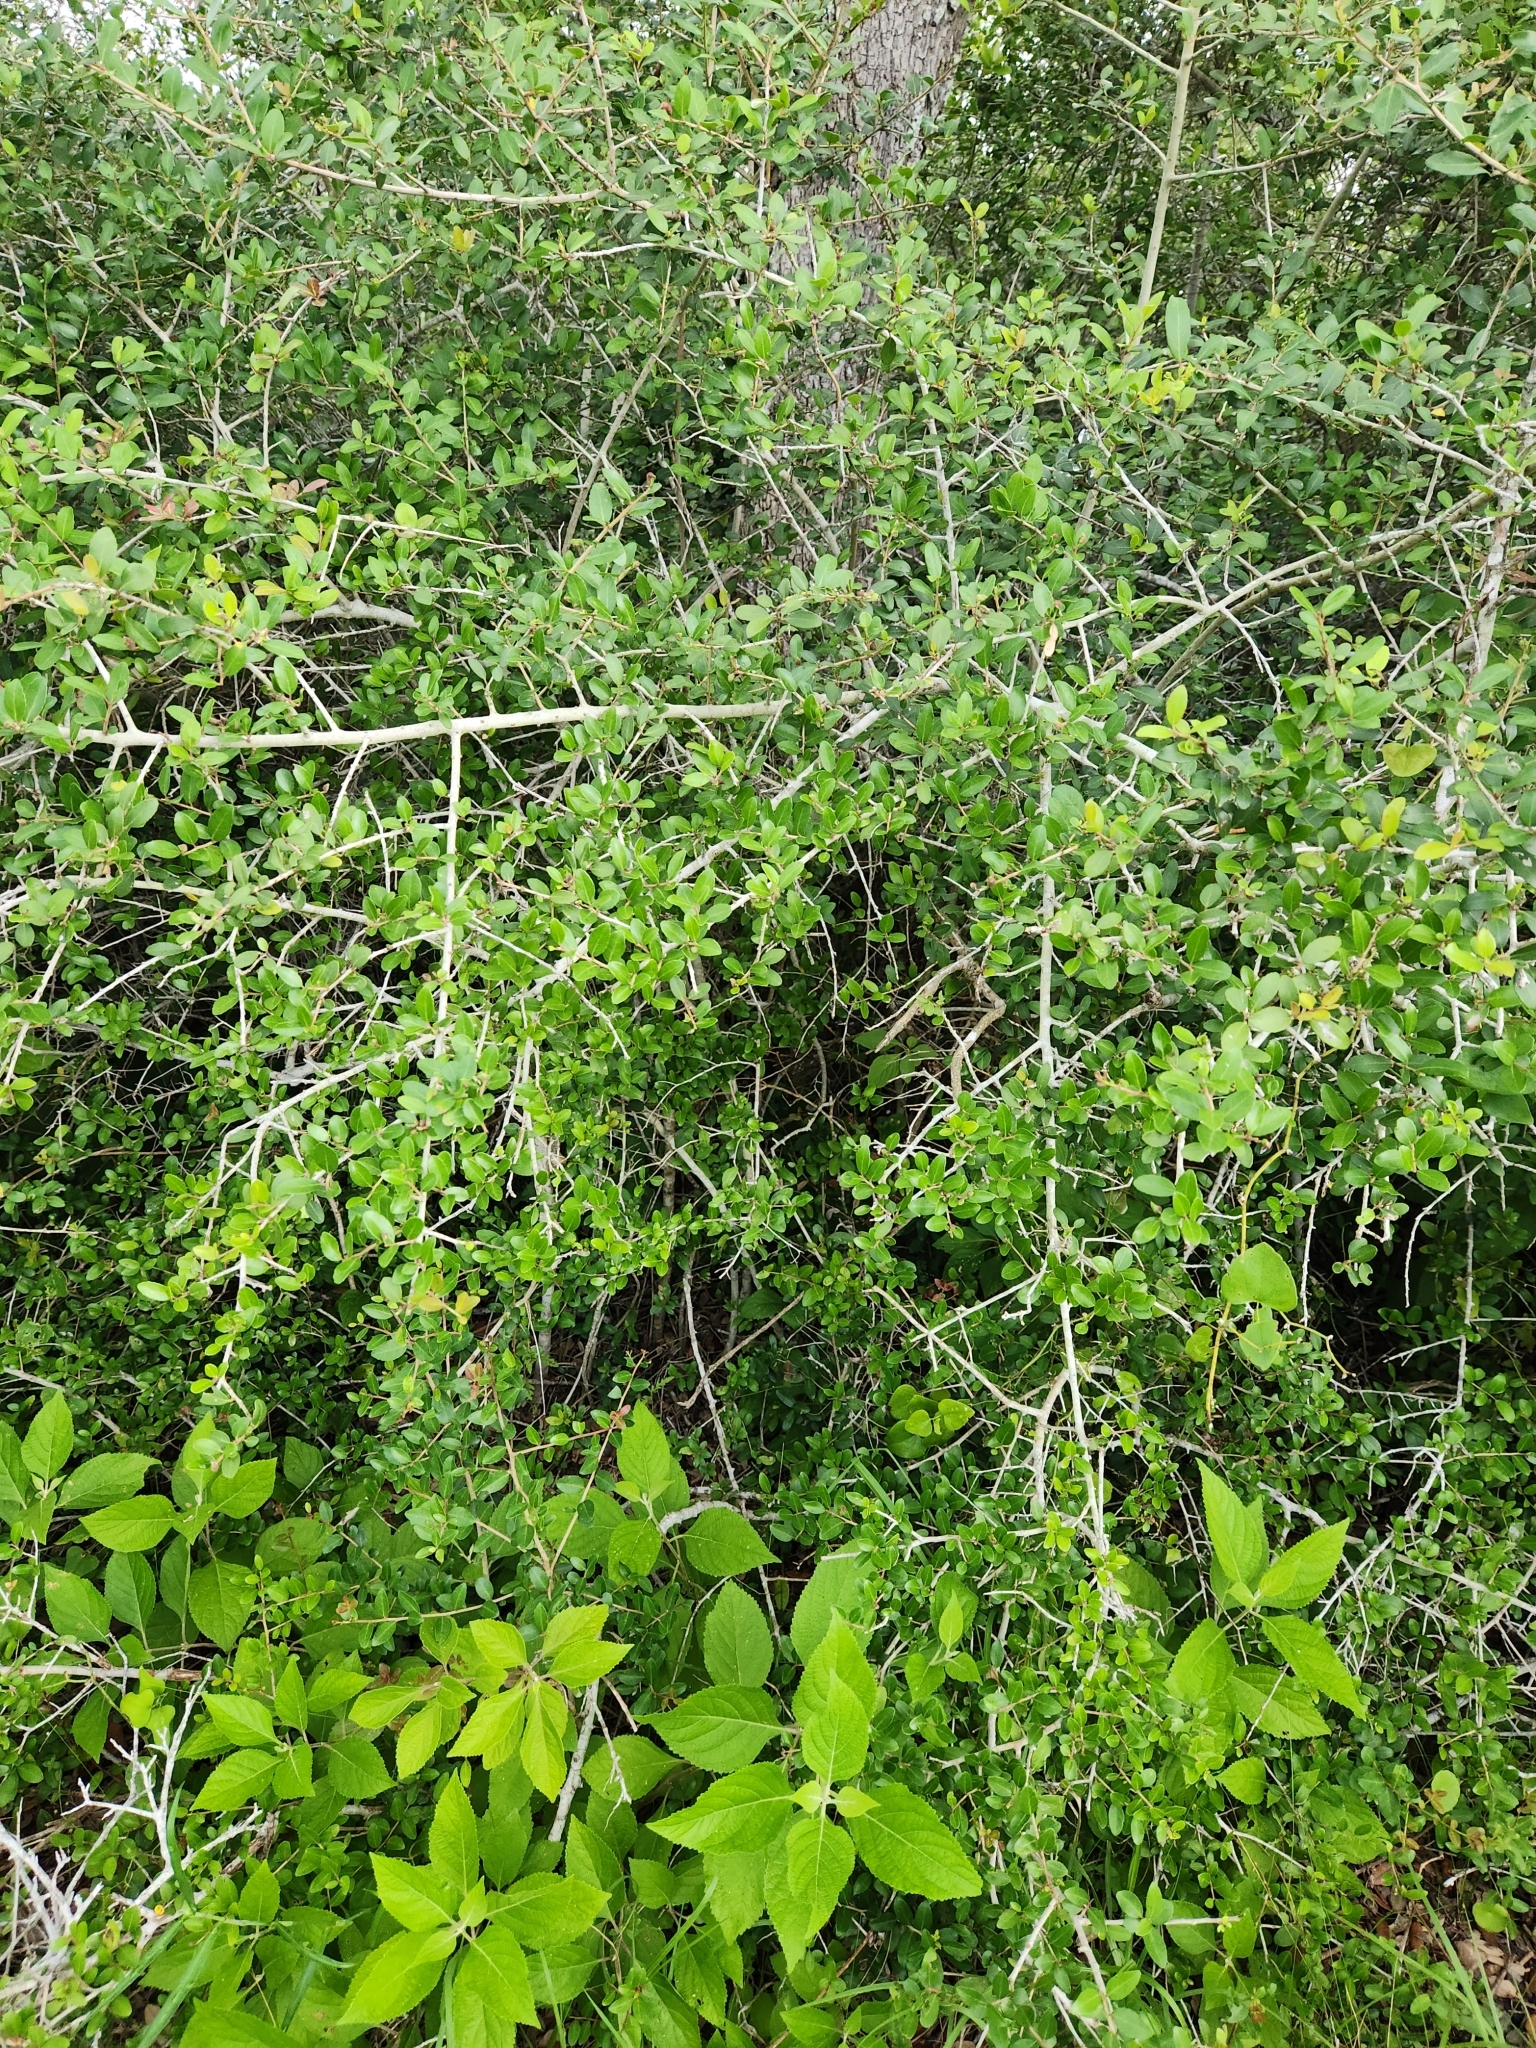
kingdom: Plantae
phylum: Tracheophyta
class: Magnoliopsida
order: Aquifoliales
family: Aquifoliaceae
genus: Ilex
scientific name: Ilex vomitoria
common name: Yaupon holly
